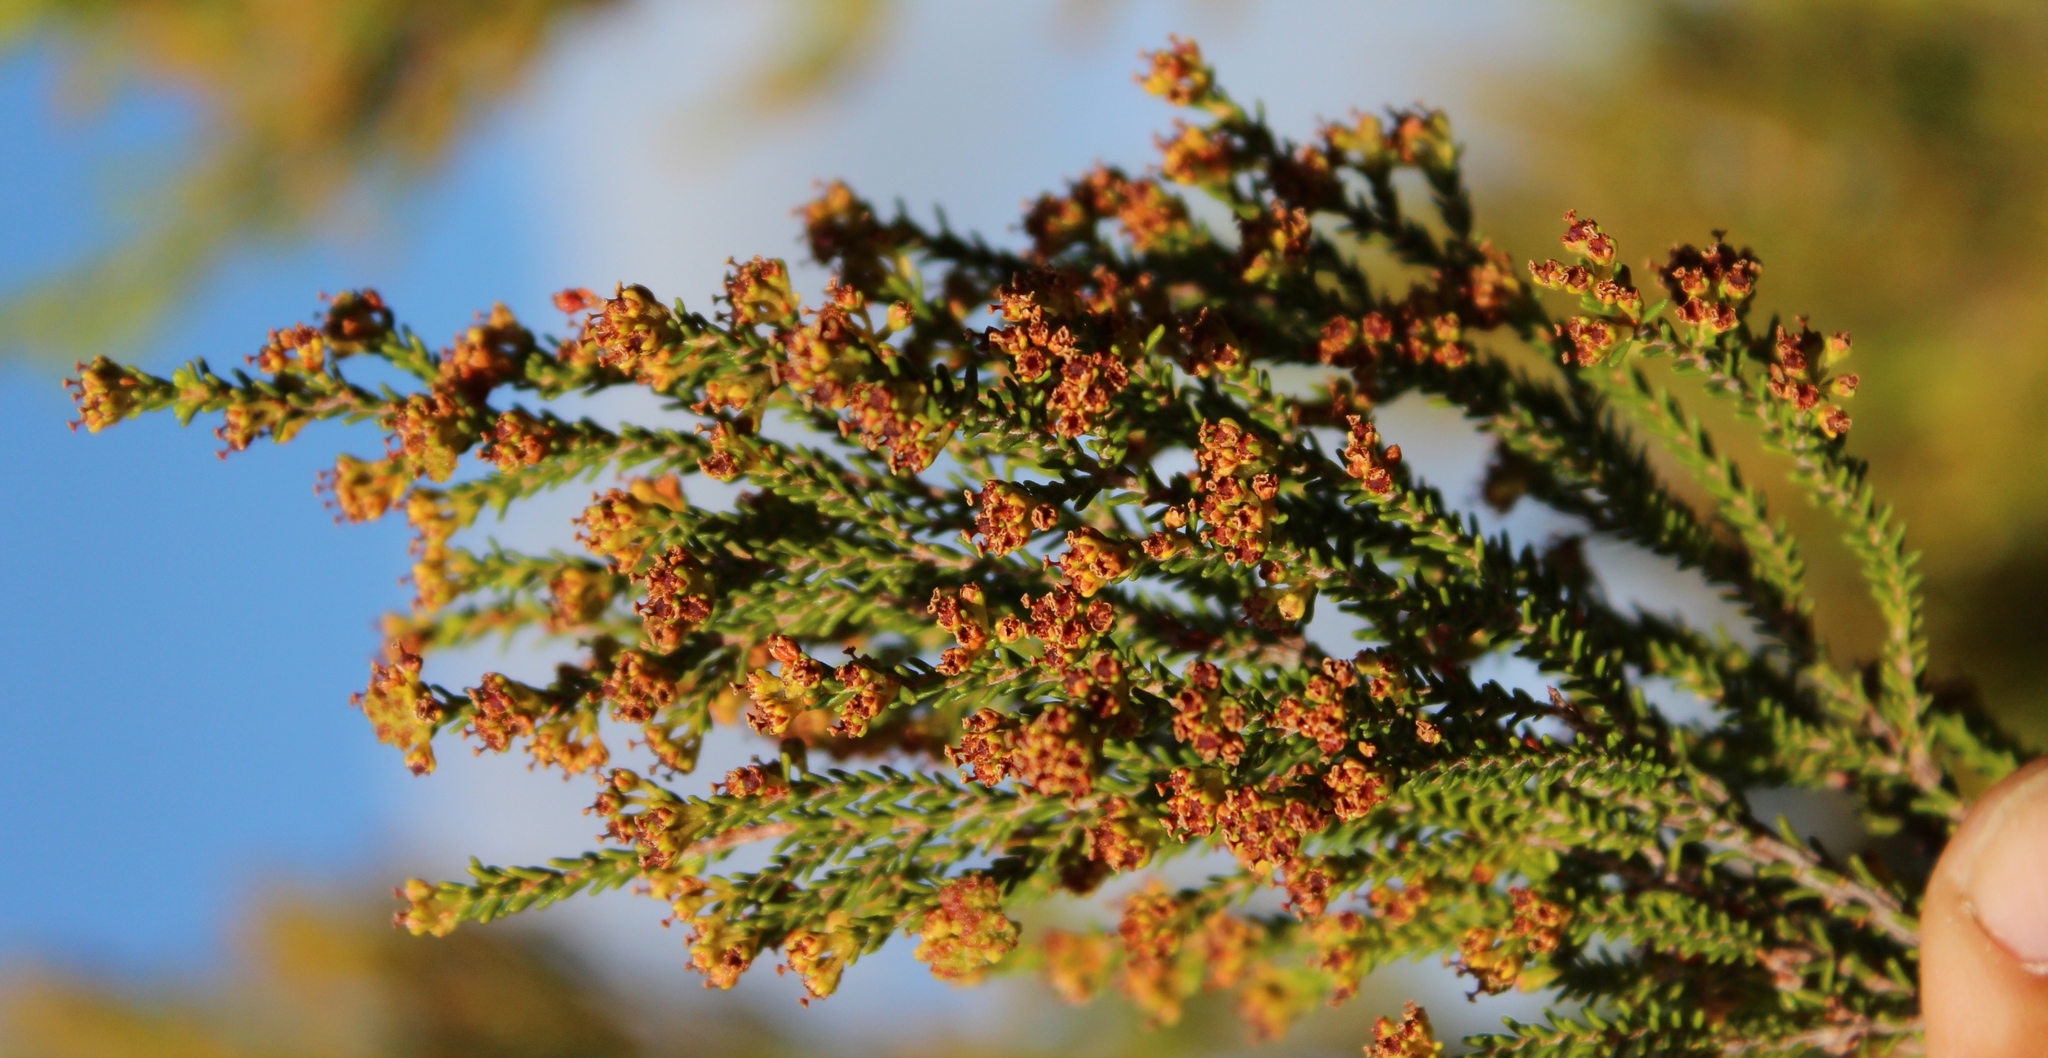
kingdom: Plantae
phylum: Tracheophyta
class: Magnoliopsida
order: Ericales
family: Ericaceae
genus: Erica
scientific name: Erica tristis
